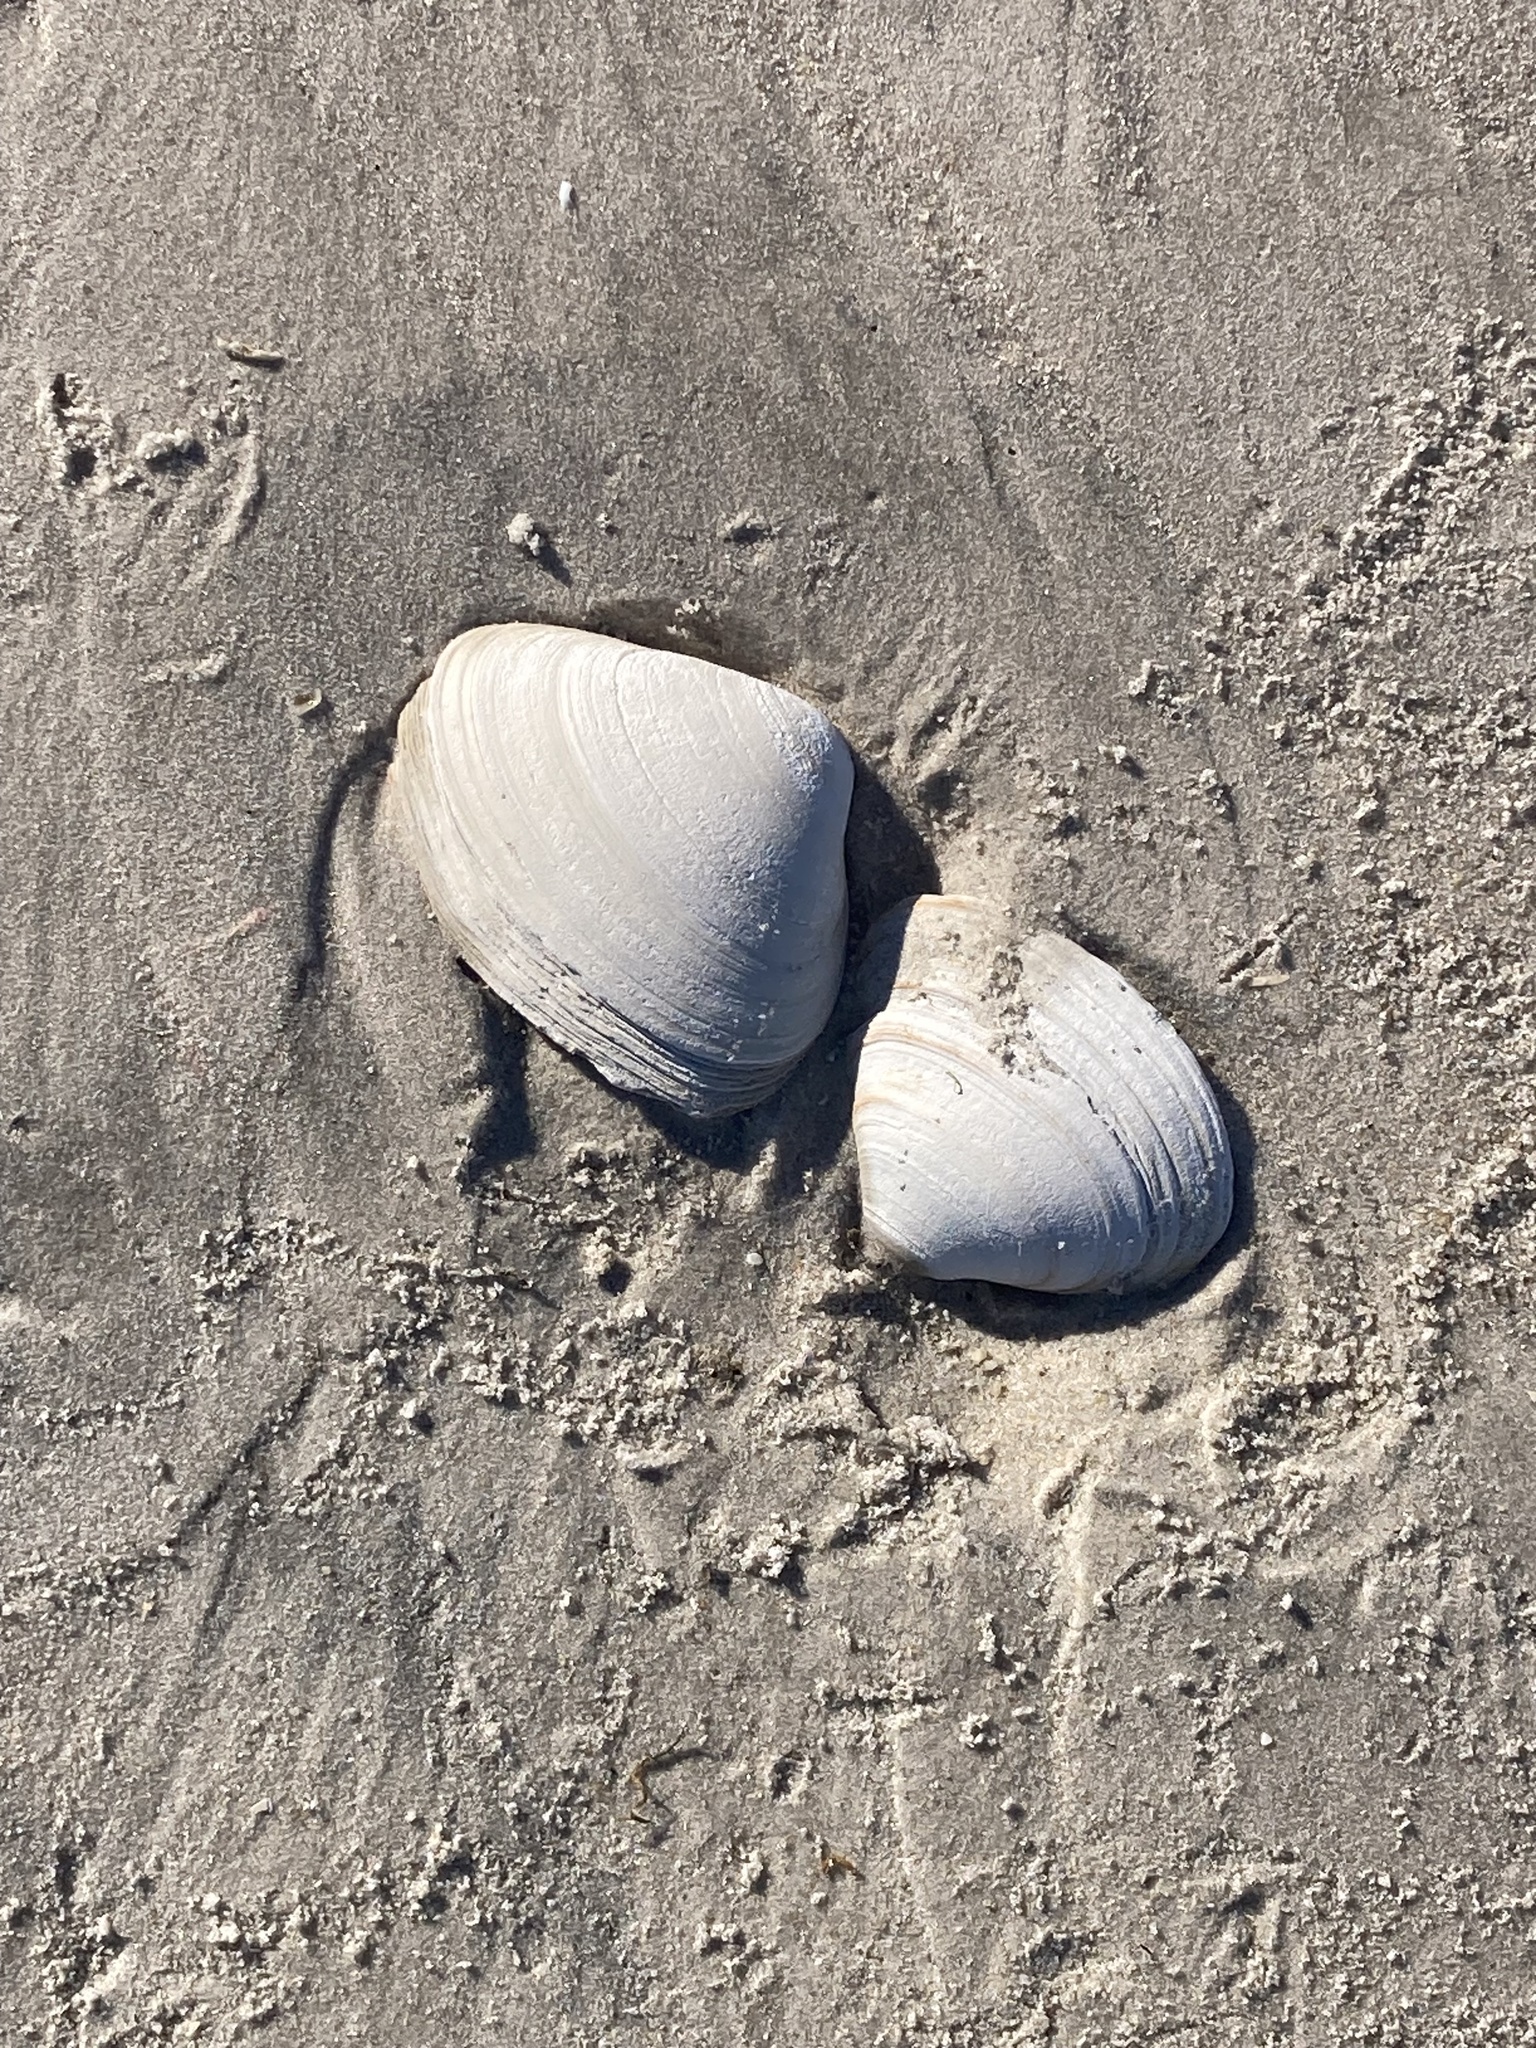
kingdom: Animalia
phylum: Mollusca
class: Bivalvia
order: Venerida
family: Mactridae
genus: Spisula
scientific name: Spisula solidissima
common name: Atlantic surf clam
